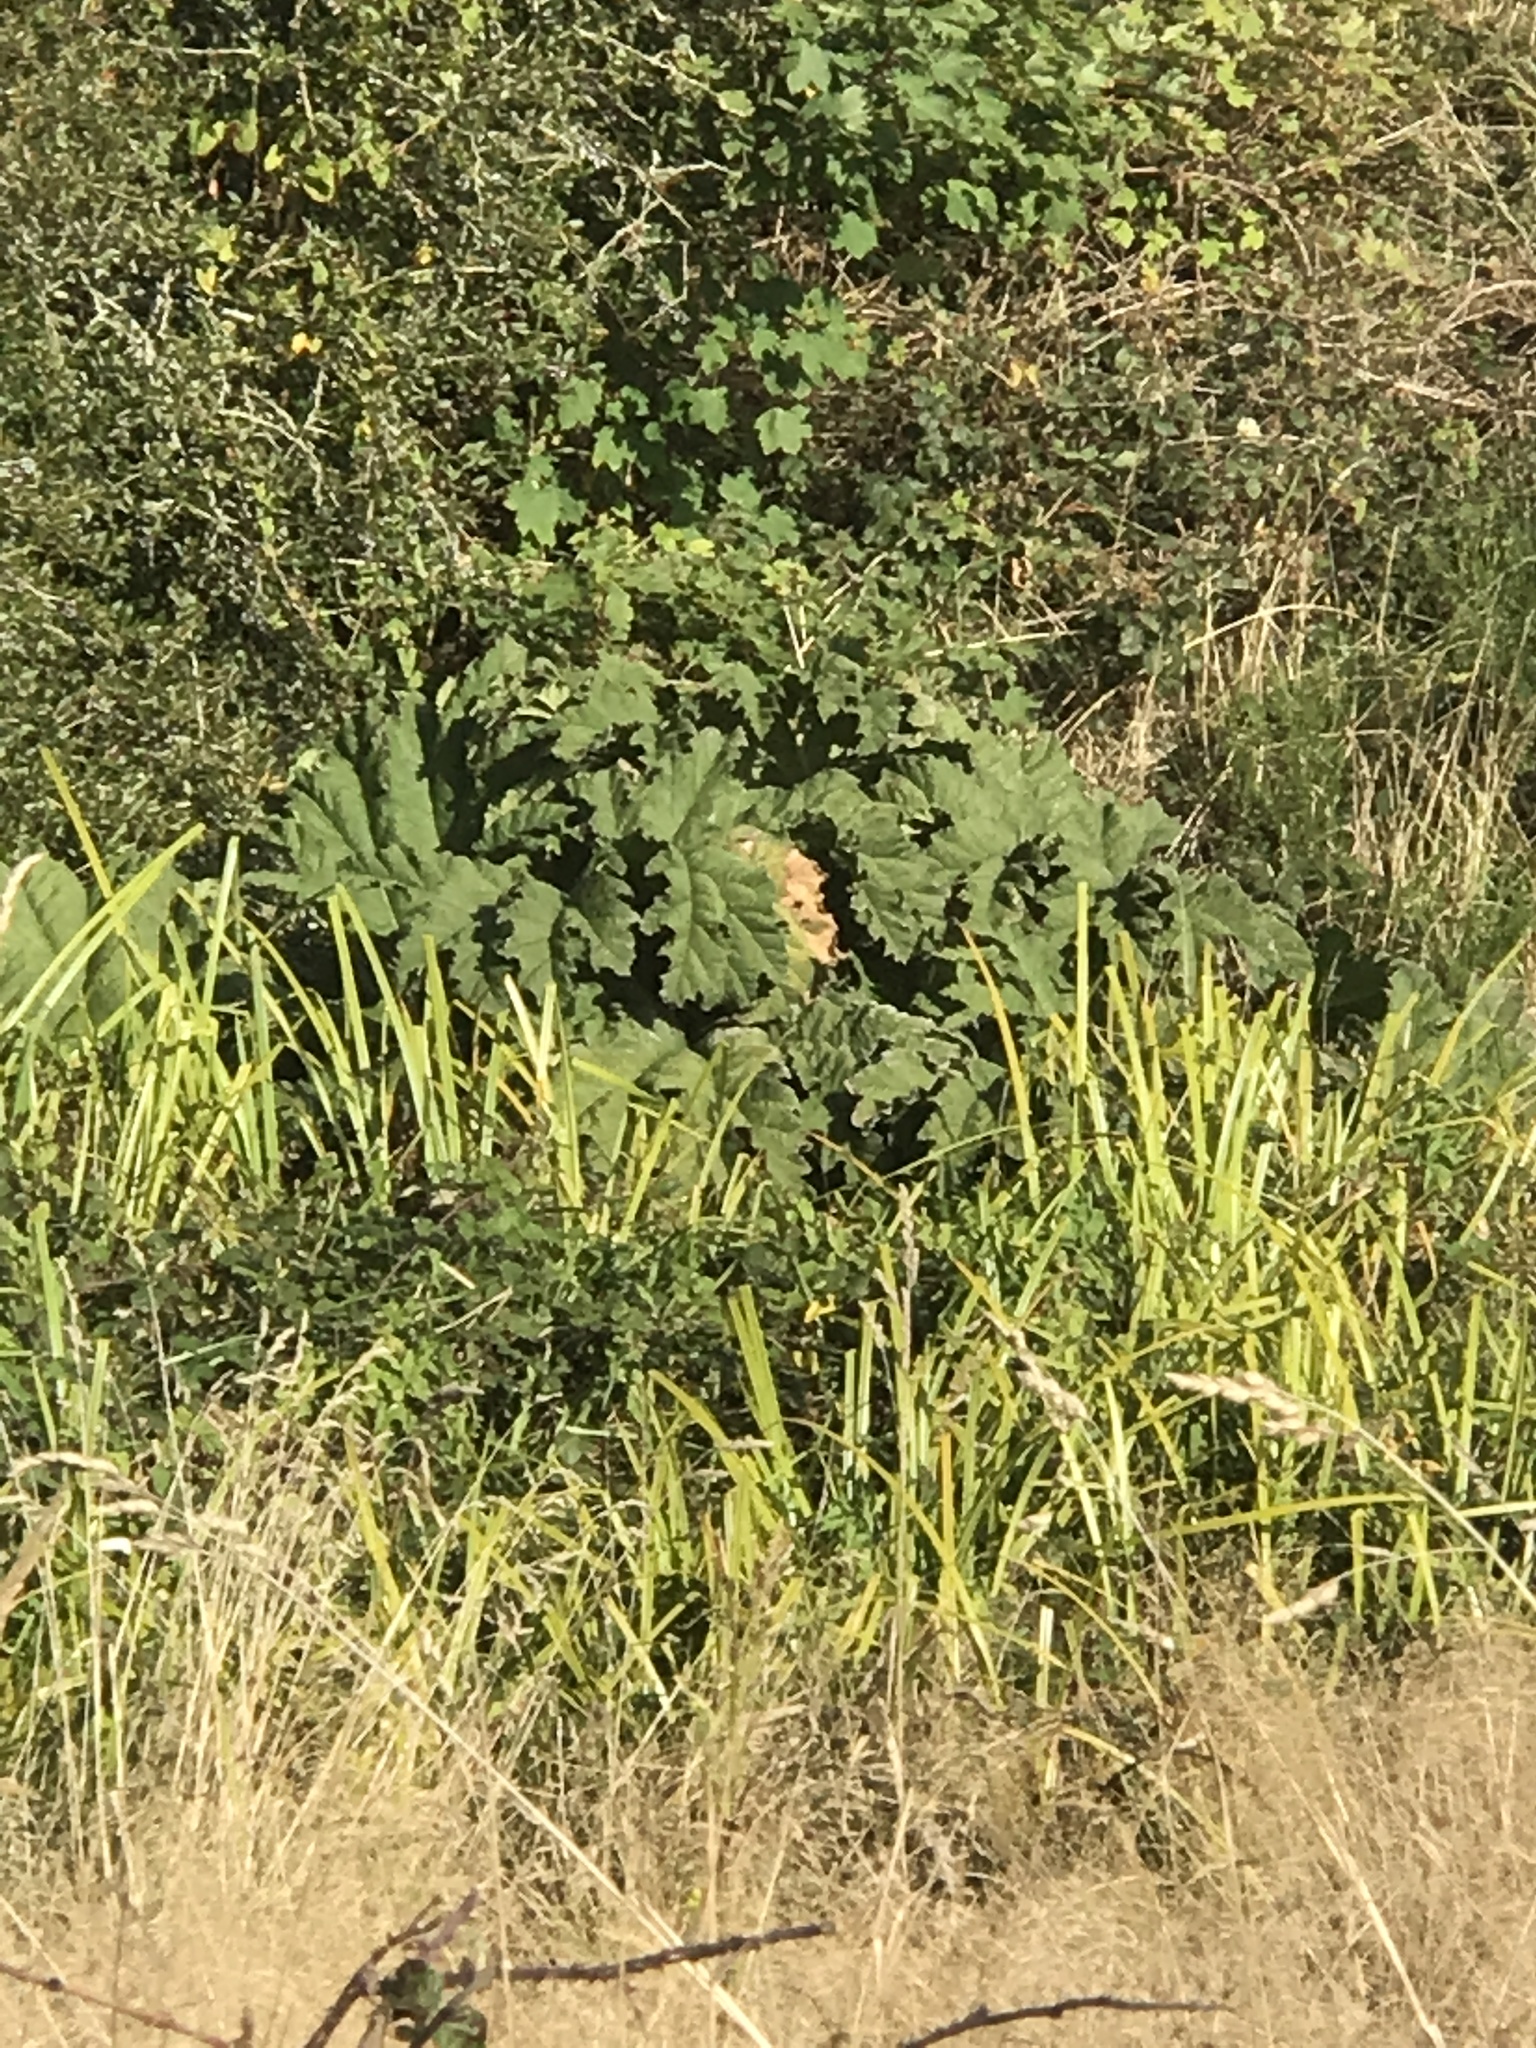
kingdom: Plantae
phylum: Tracheophyta
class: Magnoliopsida
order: Gunnerales
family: Gunneraceae
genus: Gunnera
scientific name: Gunnera tinctoria
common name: Giant-rhubarb
